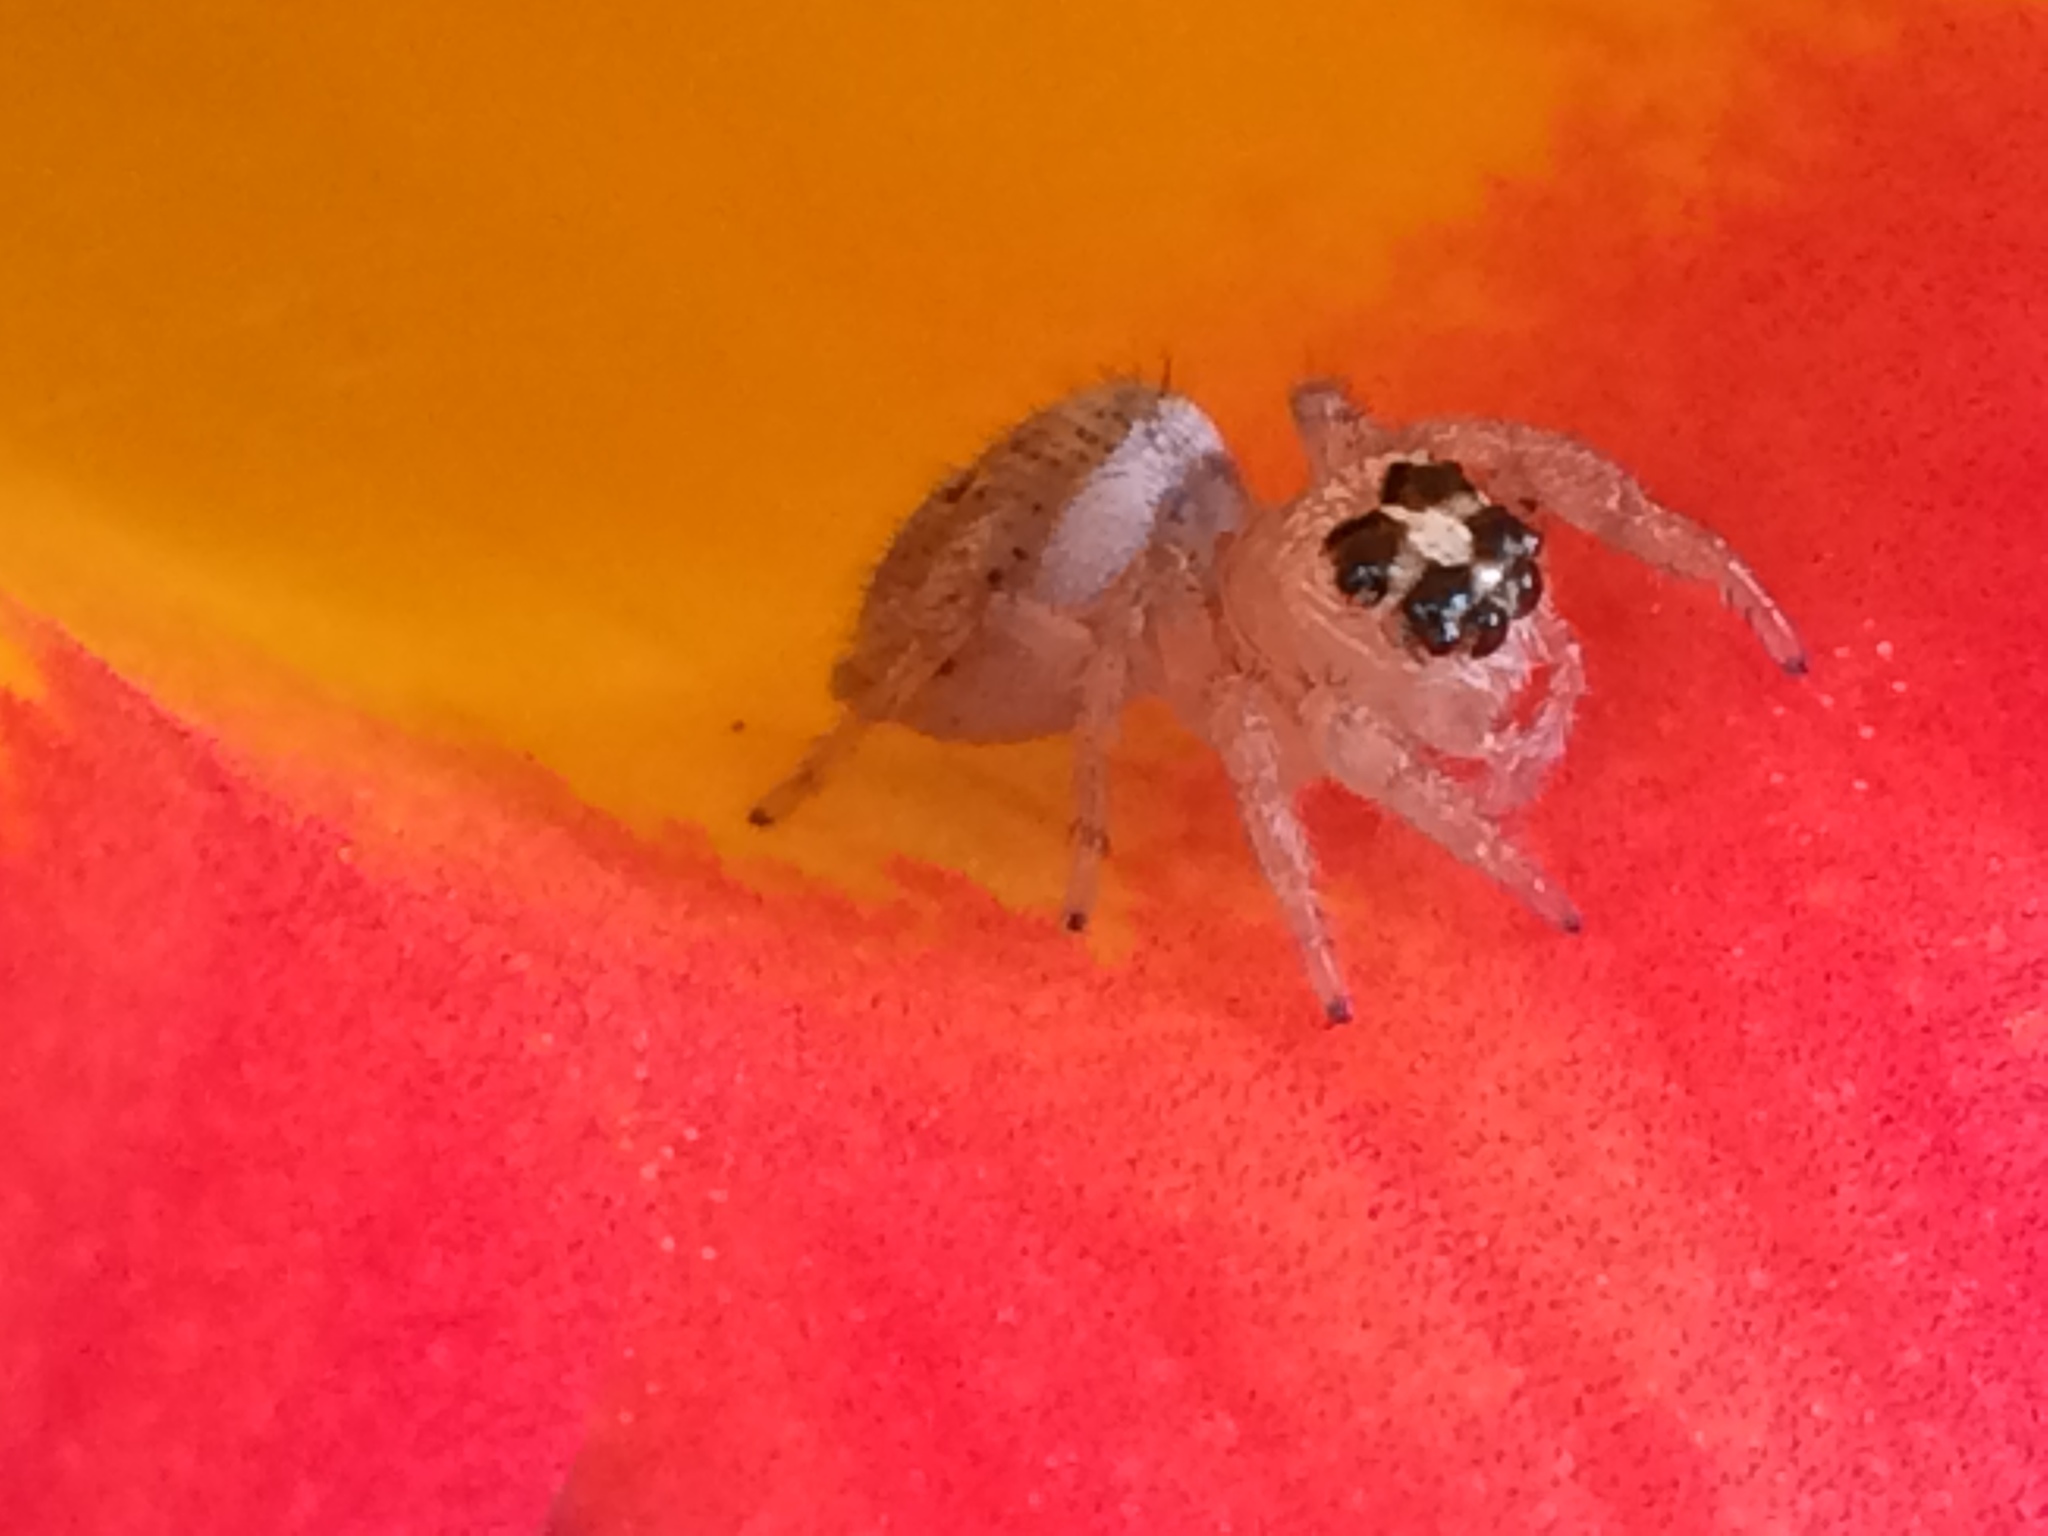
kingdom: Animalia
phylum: Arthropoda
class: Arachnida
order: Araneae
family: Salticidae
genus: Colonus
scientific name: Colonus hesperus
